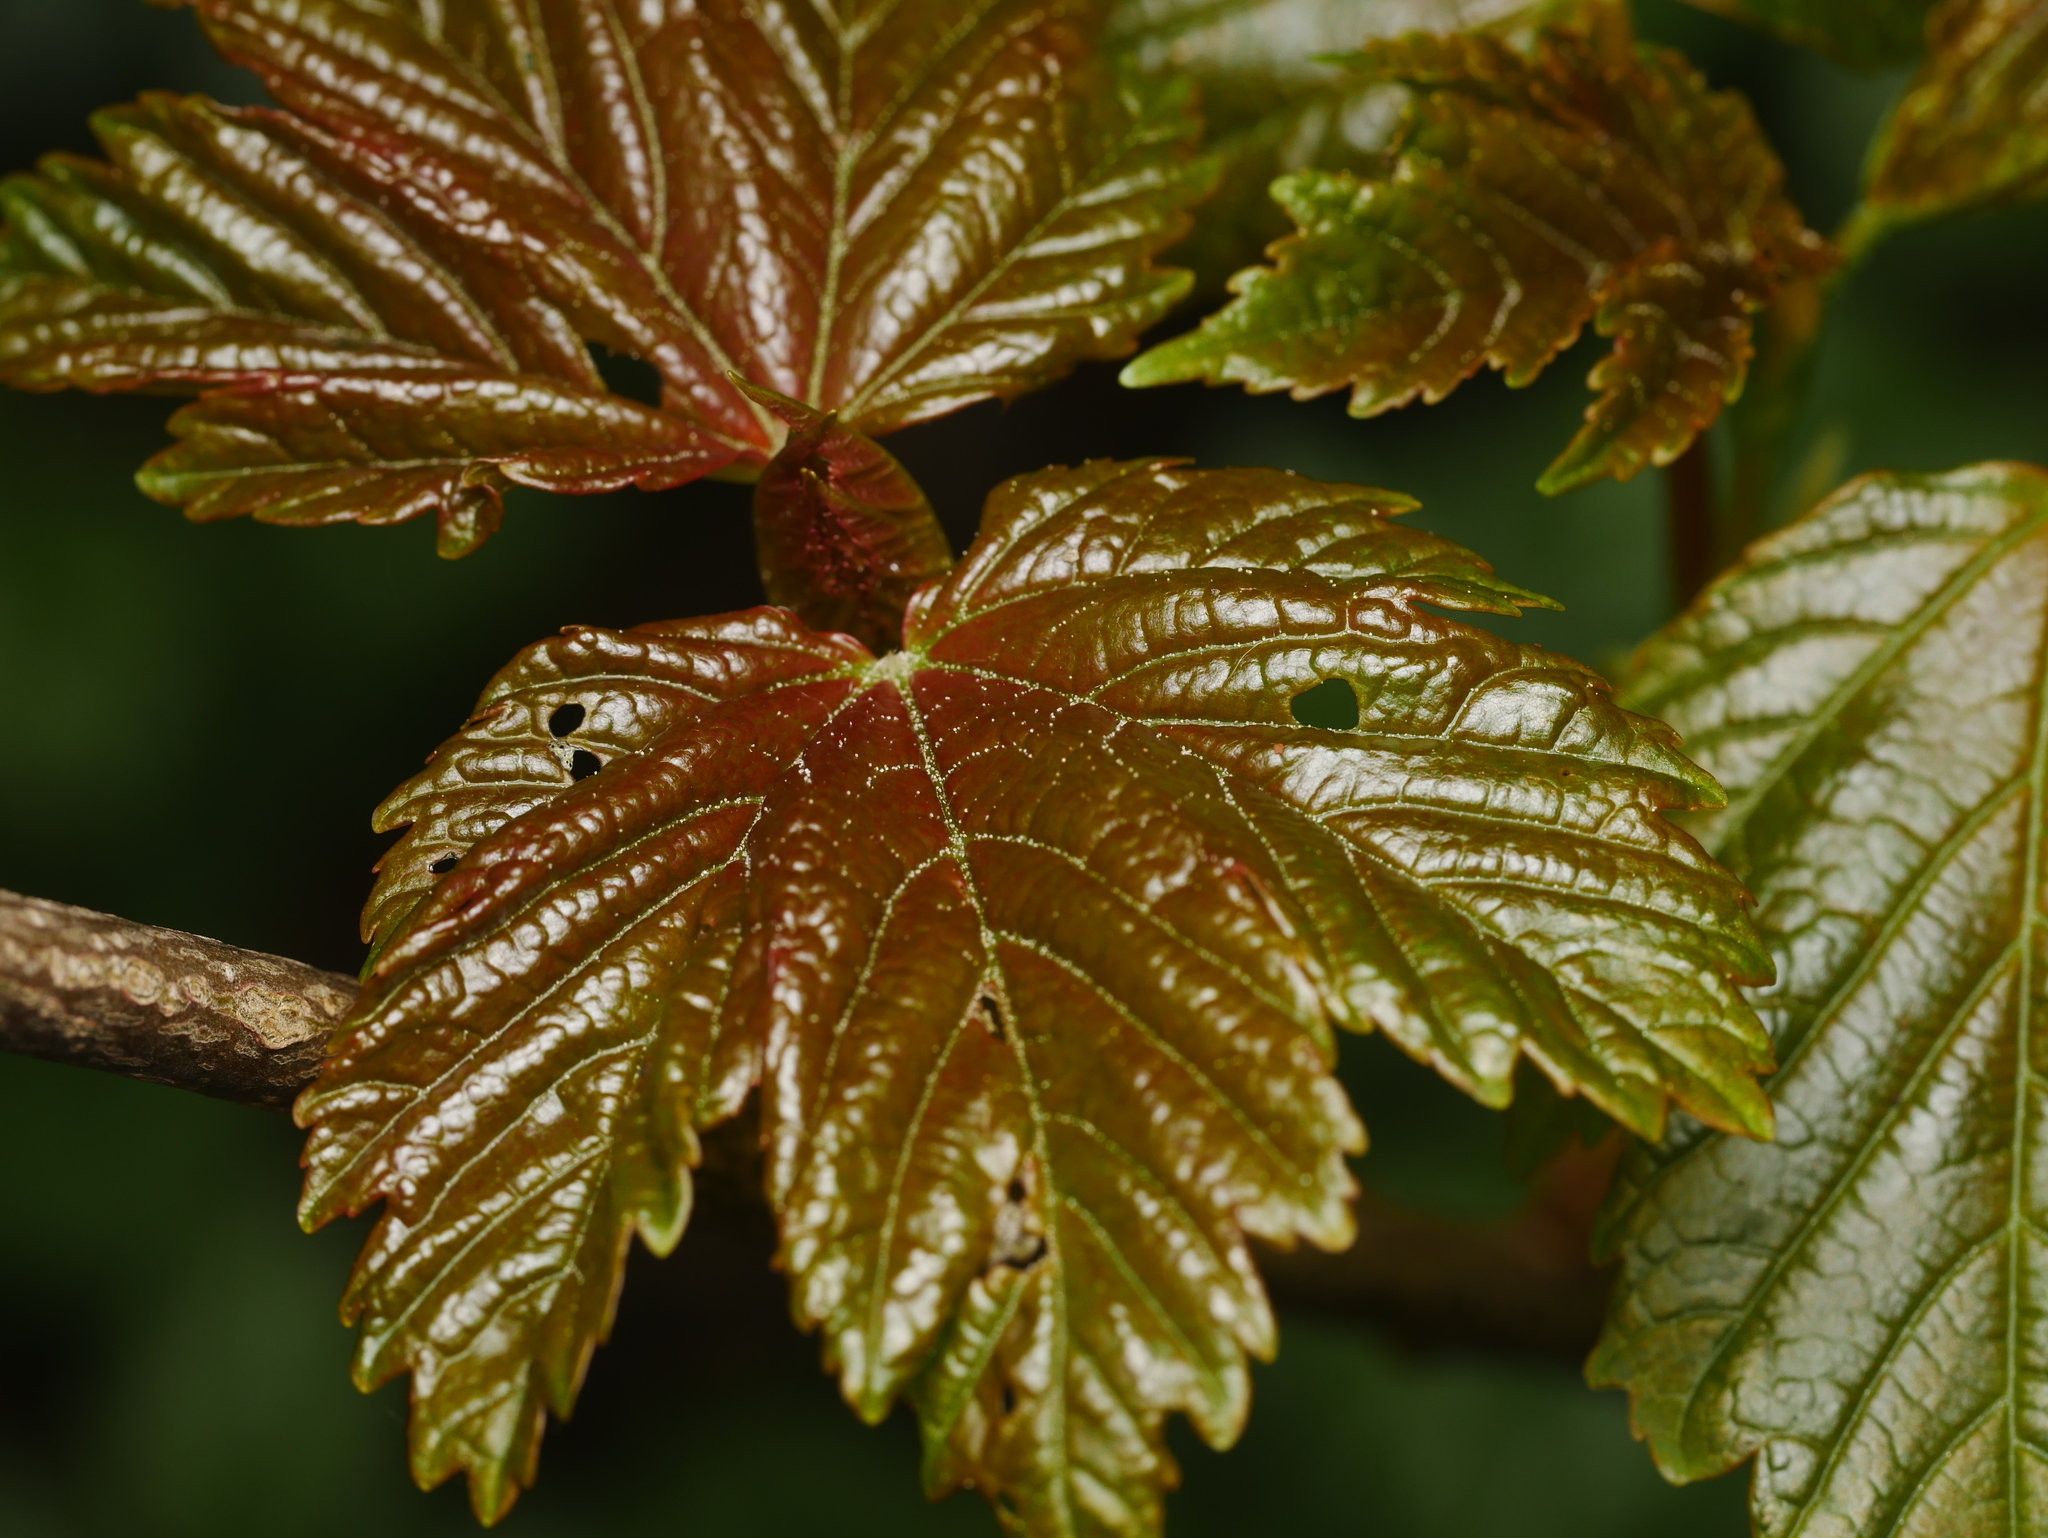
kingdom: Plantae
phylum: Tracheophyta
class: Magnoliopsida
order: Sapindales
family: Sapindaceae
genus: Acer
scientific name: Acer pseudoplatanus
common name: Sycamore
